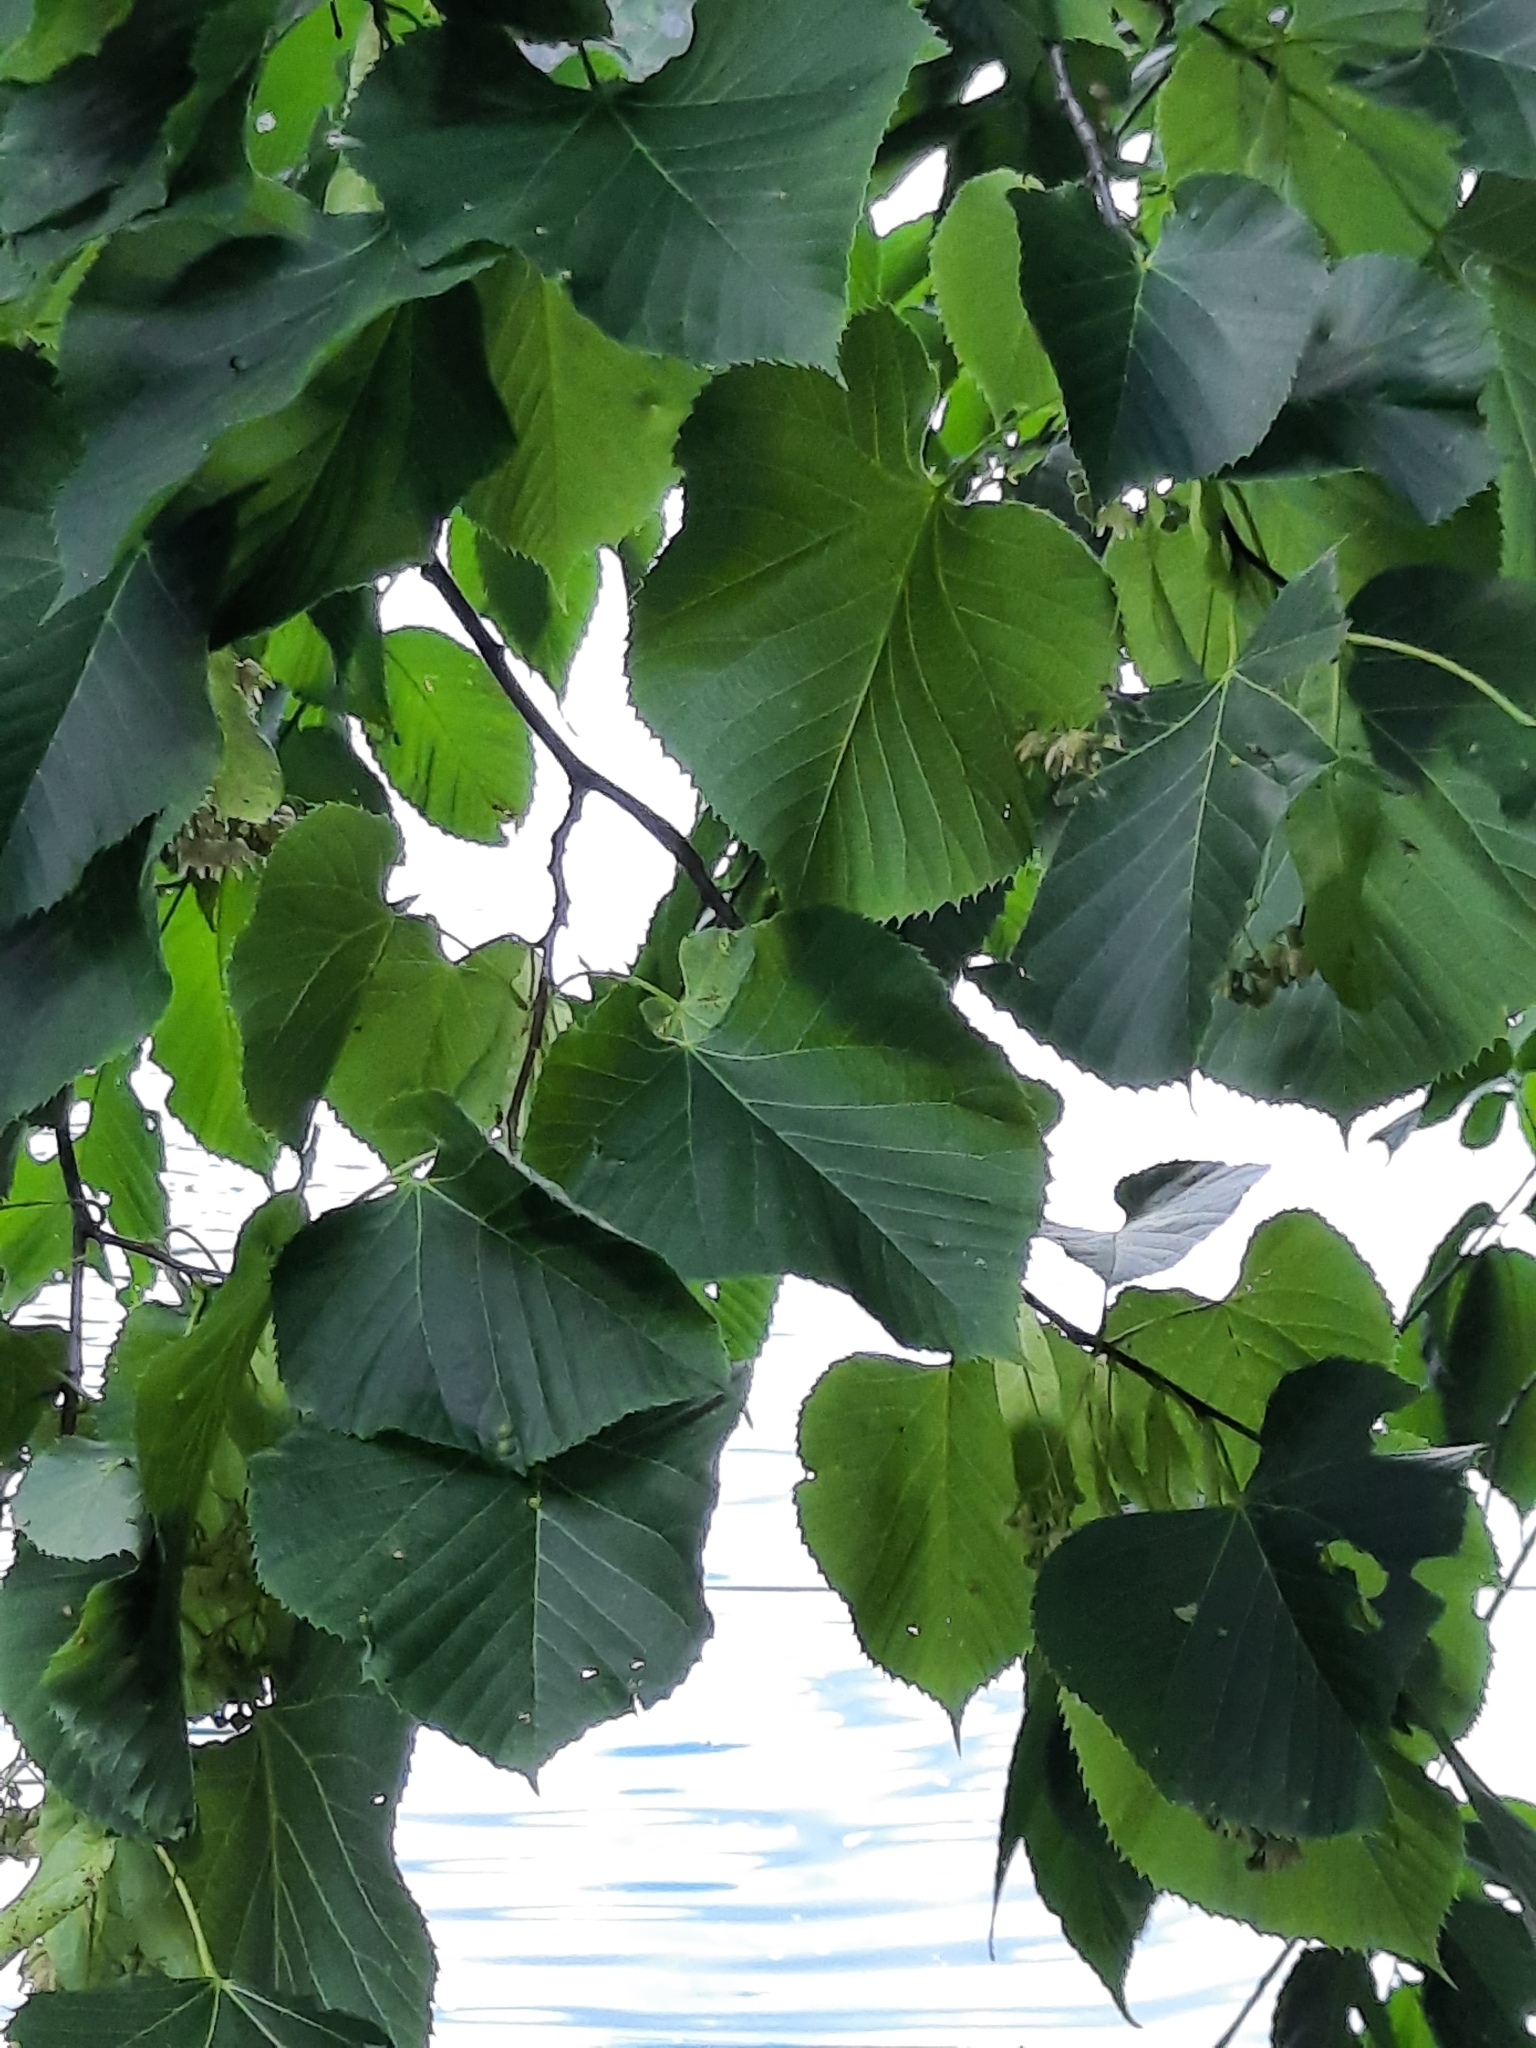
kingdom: Plantae
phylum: Tracheophyta
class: Magnoliopsida
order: Malvales
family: Malvaceae
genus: Tilia
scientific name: Tilia americana
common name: Basswood
